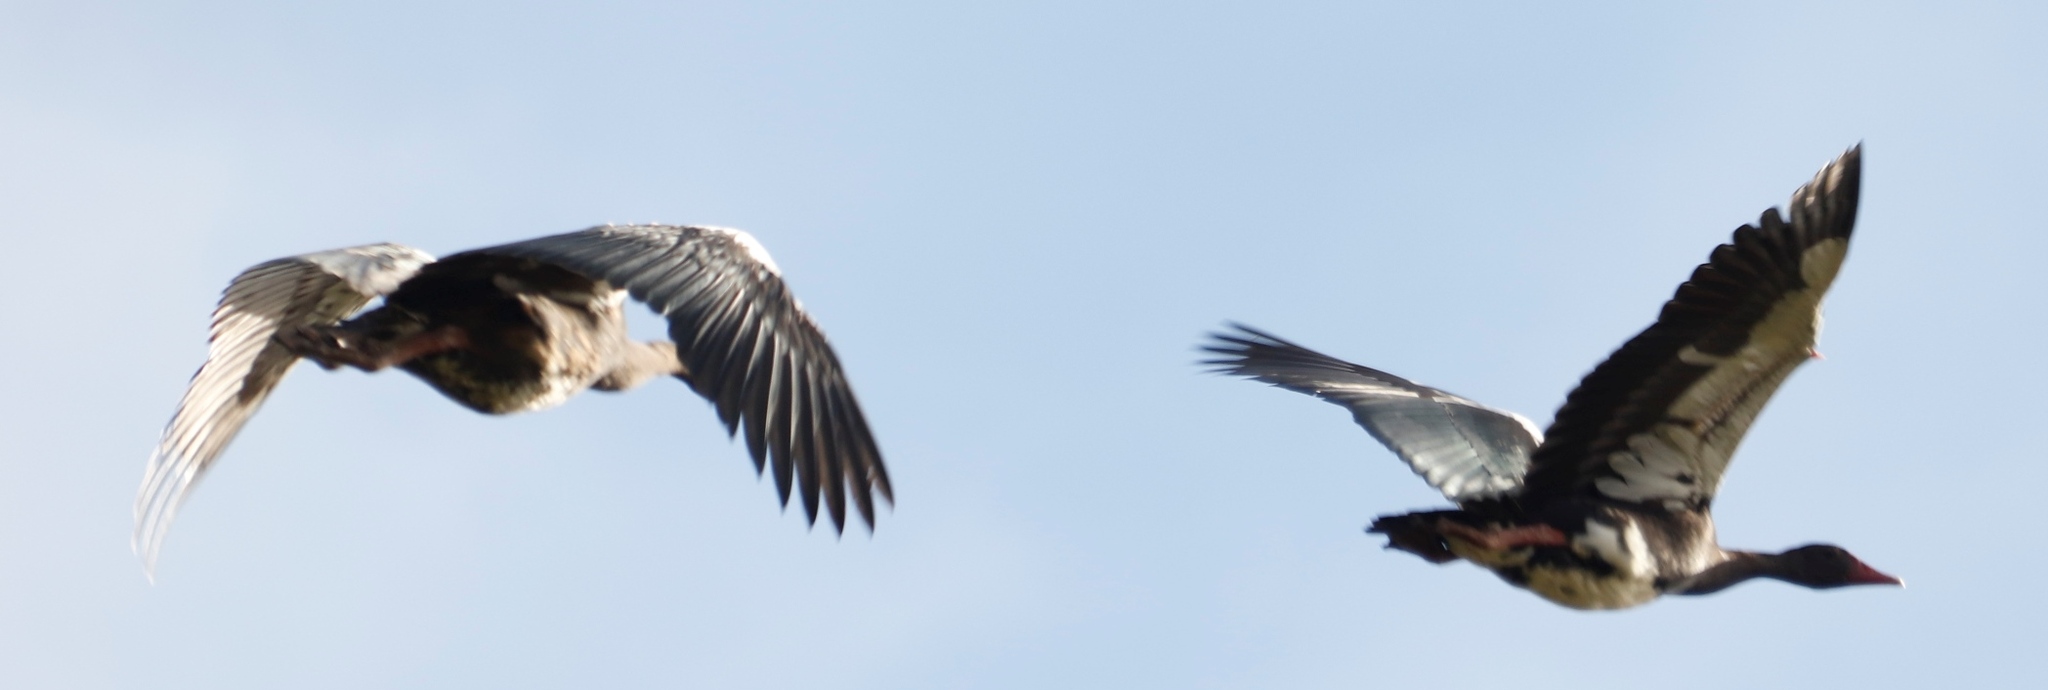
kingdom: Animalia
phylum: Chordata
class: Aves
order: Anseriformes
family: Anatidae
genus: Plectropterus
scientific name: Plectropterus gambensis
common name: Spur-winged goose
